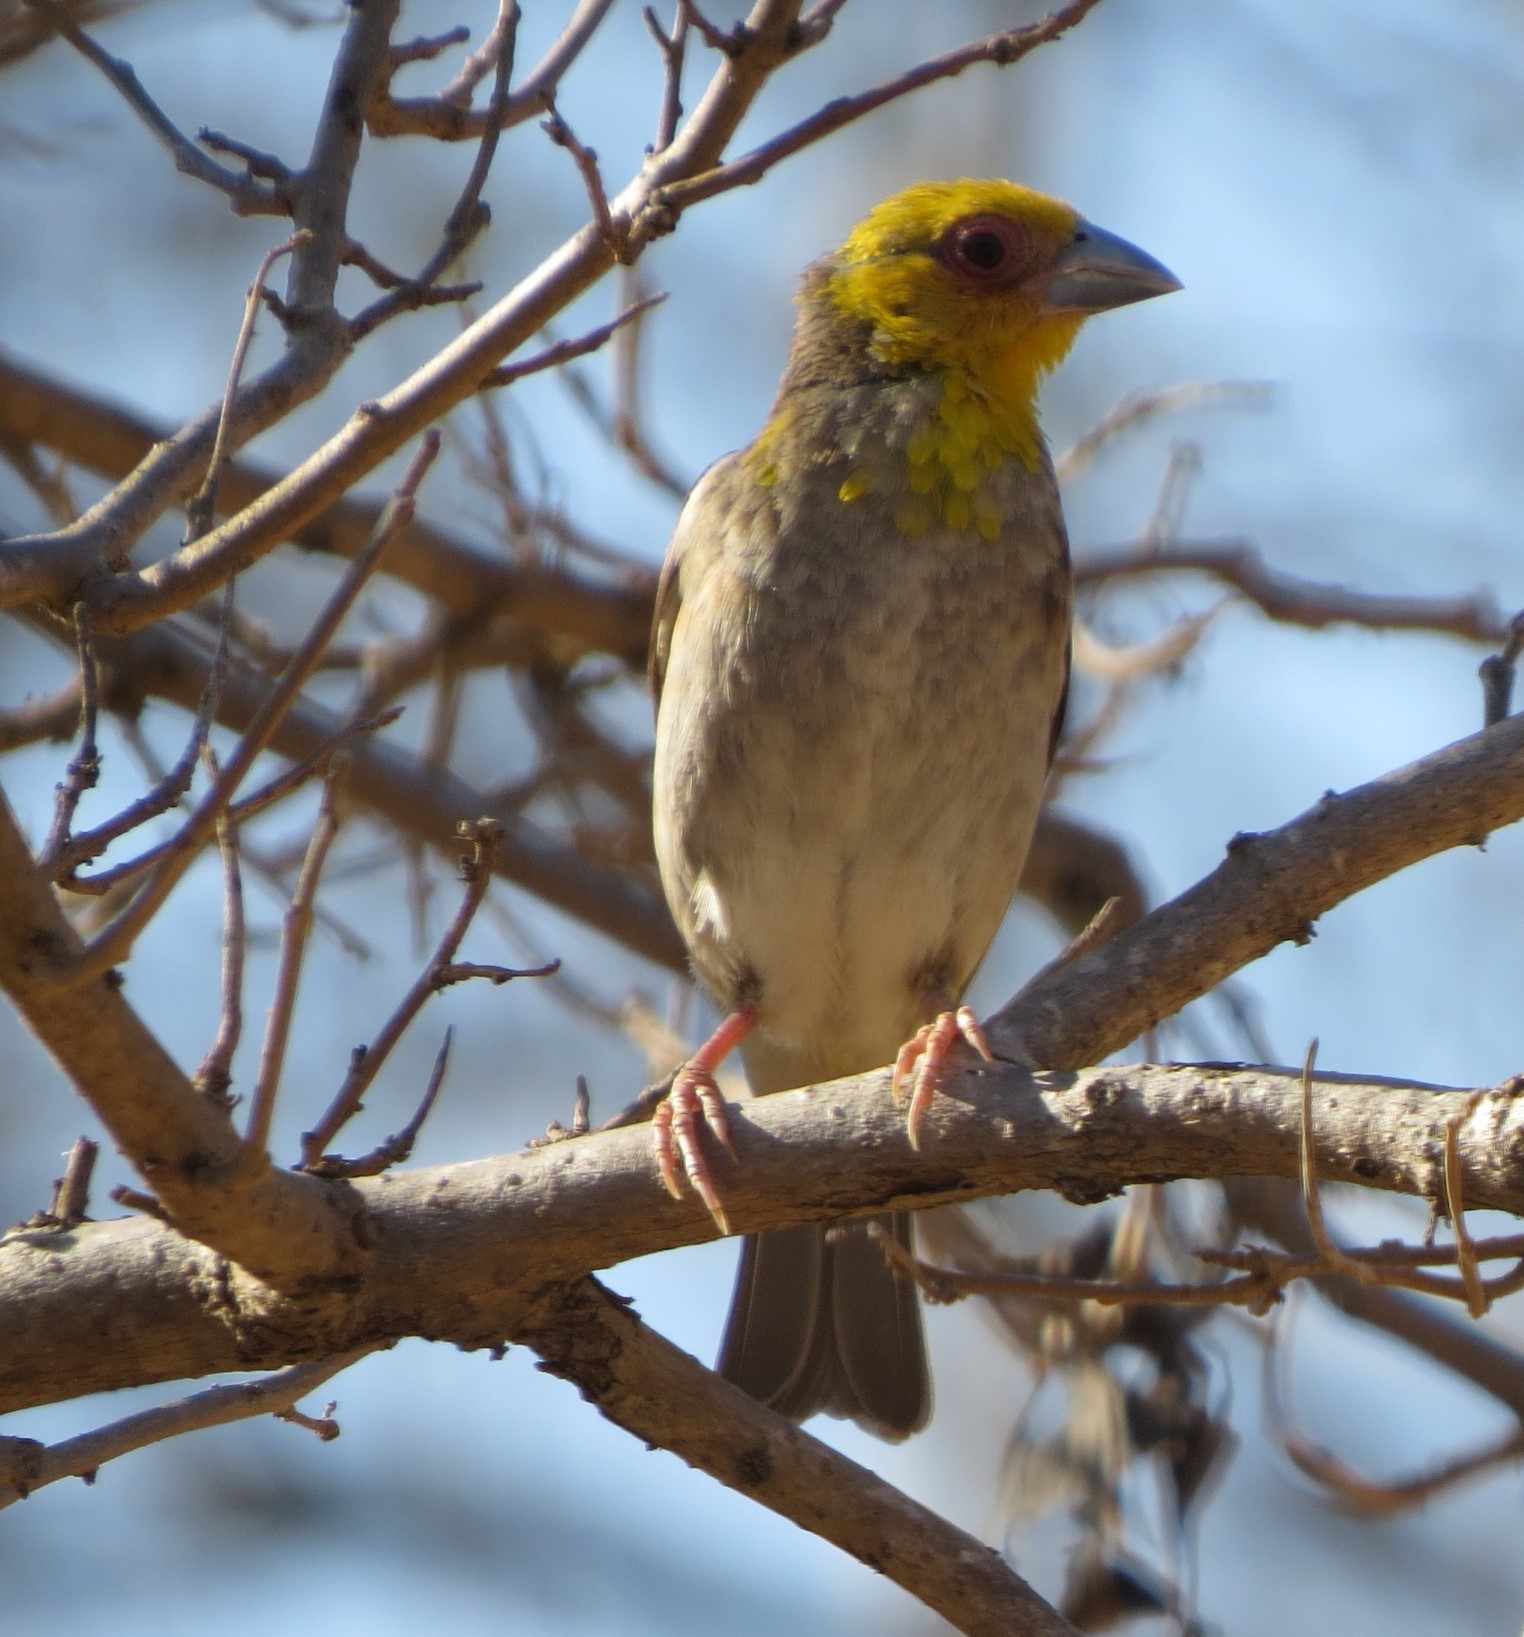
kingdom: Animalia
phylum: Chordata
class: Aves
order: Passeriformes
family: Ploceidae
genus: Ploceus
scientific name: Ploceus sakalava
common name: Sakalava weaver
